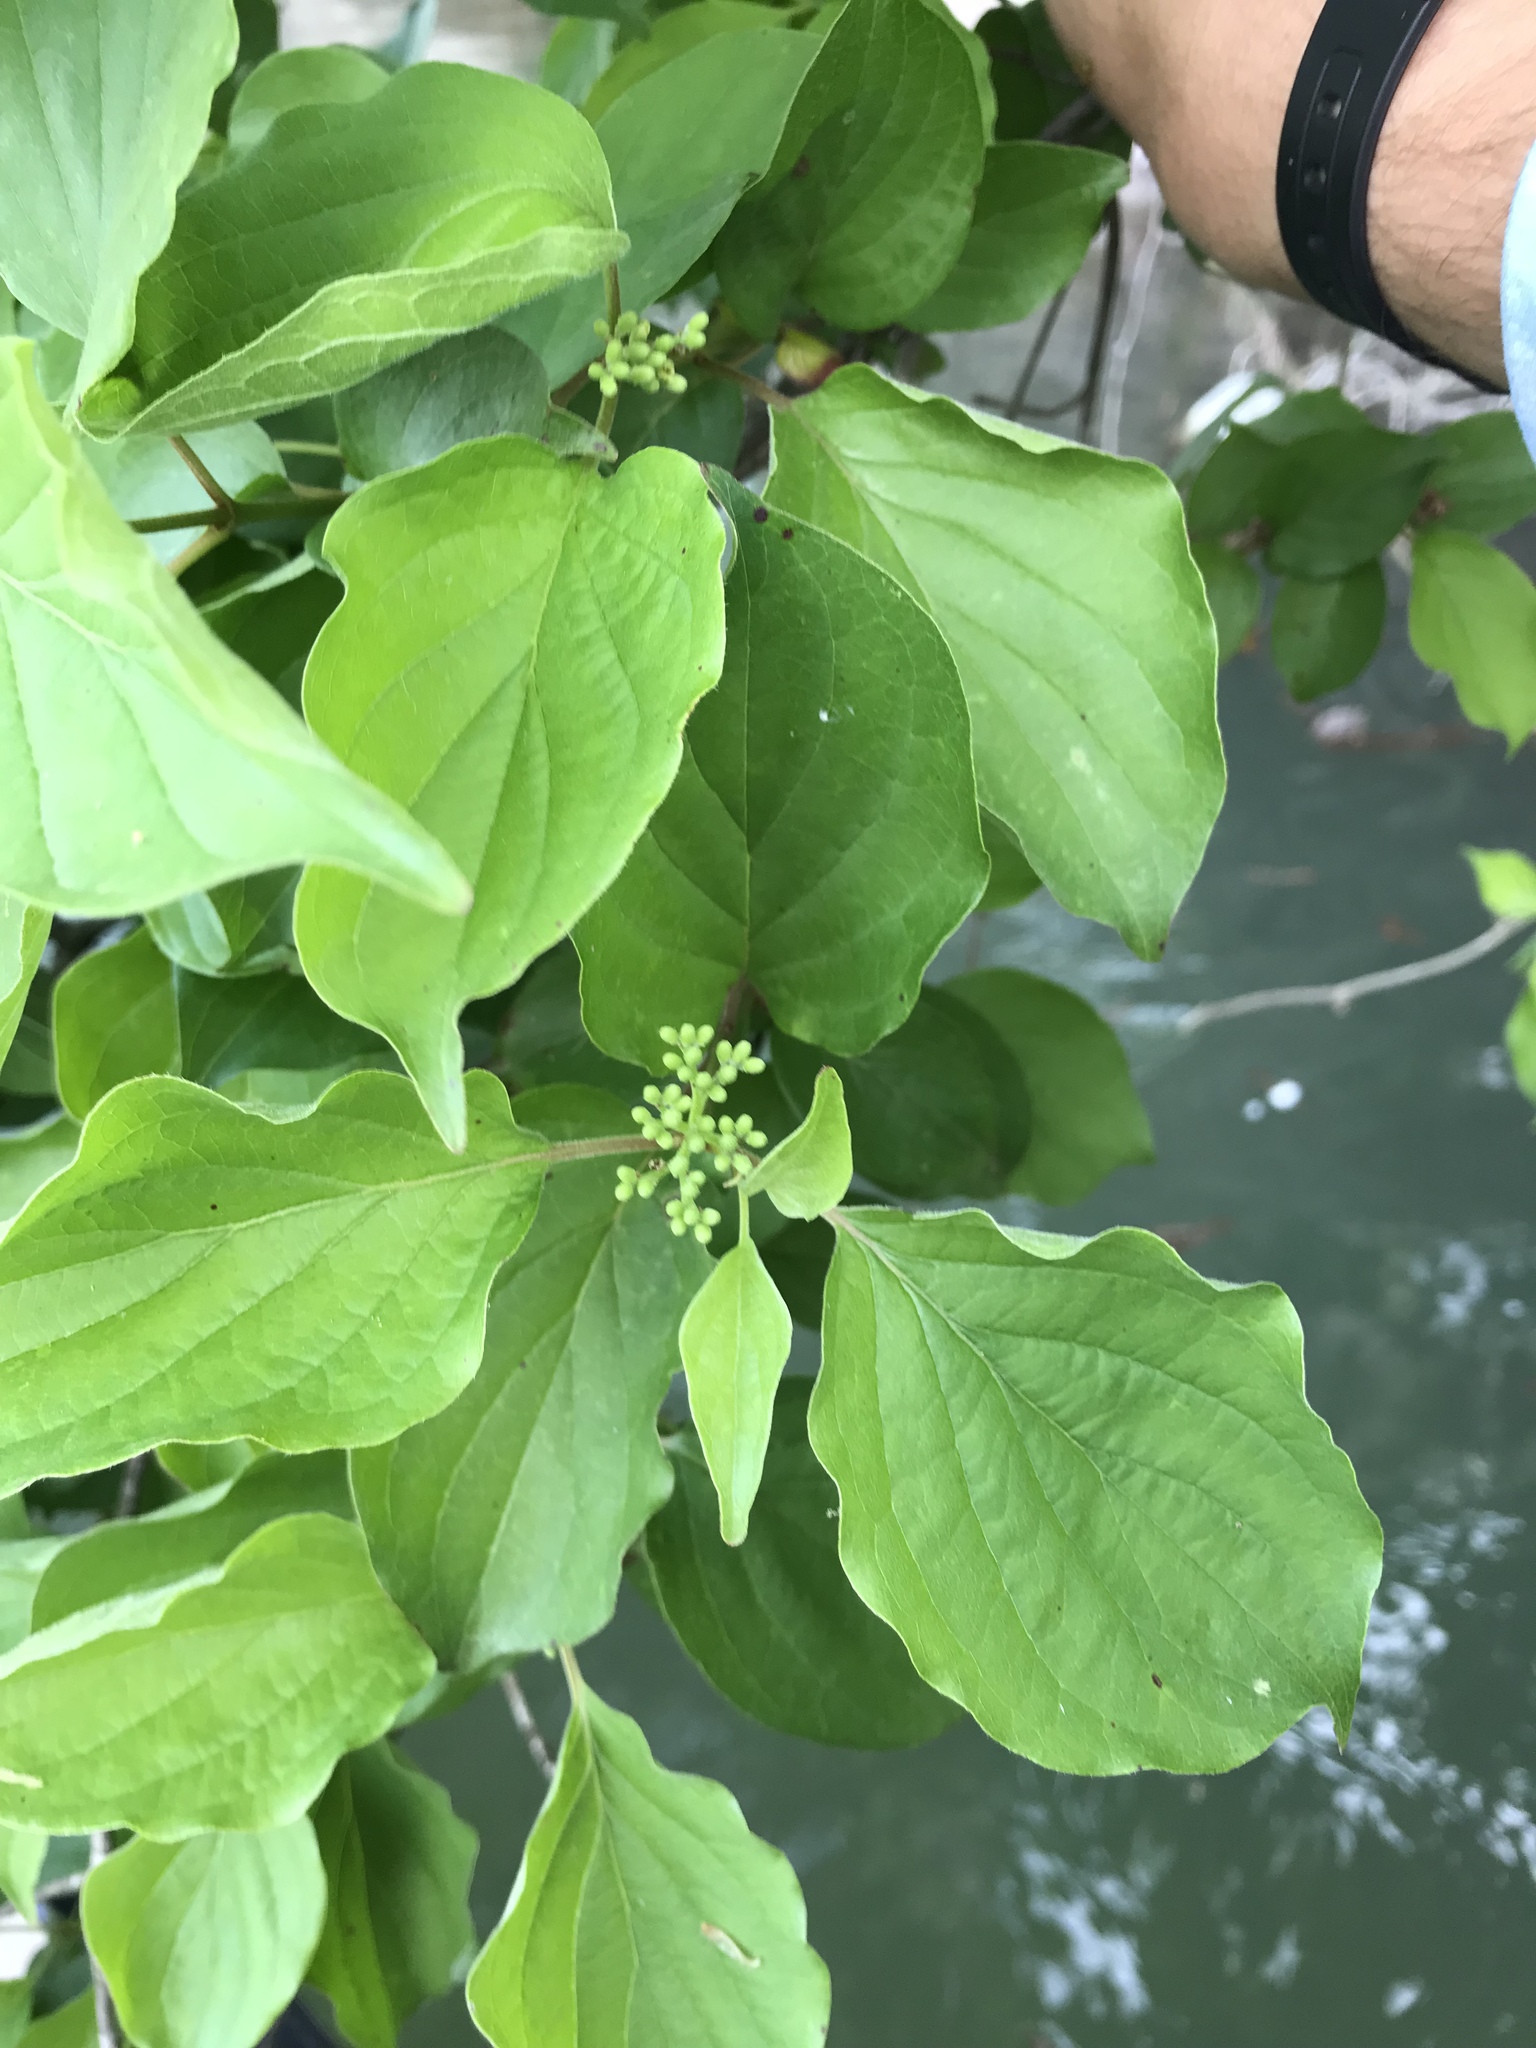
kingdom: Plantae
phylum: Tracheophyta
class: Magnoliopsida
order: Cornales
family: Cornaceae
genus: Cornus
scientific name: Cornus drummondii
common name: Rough-leaf dogwood
